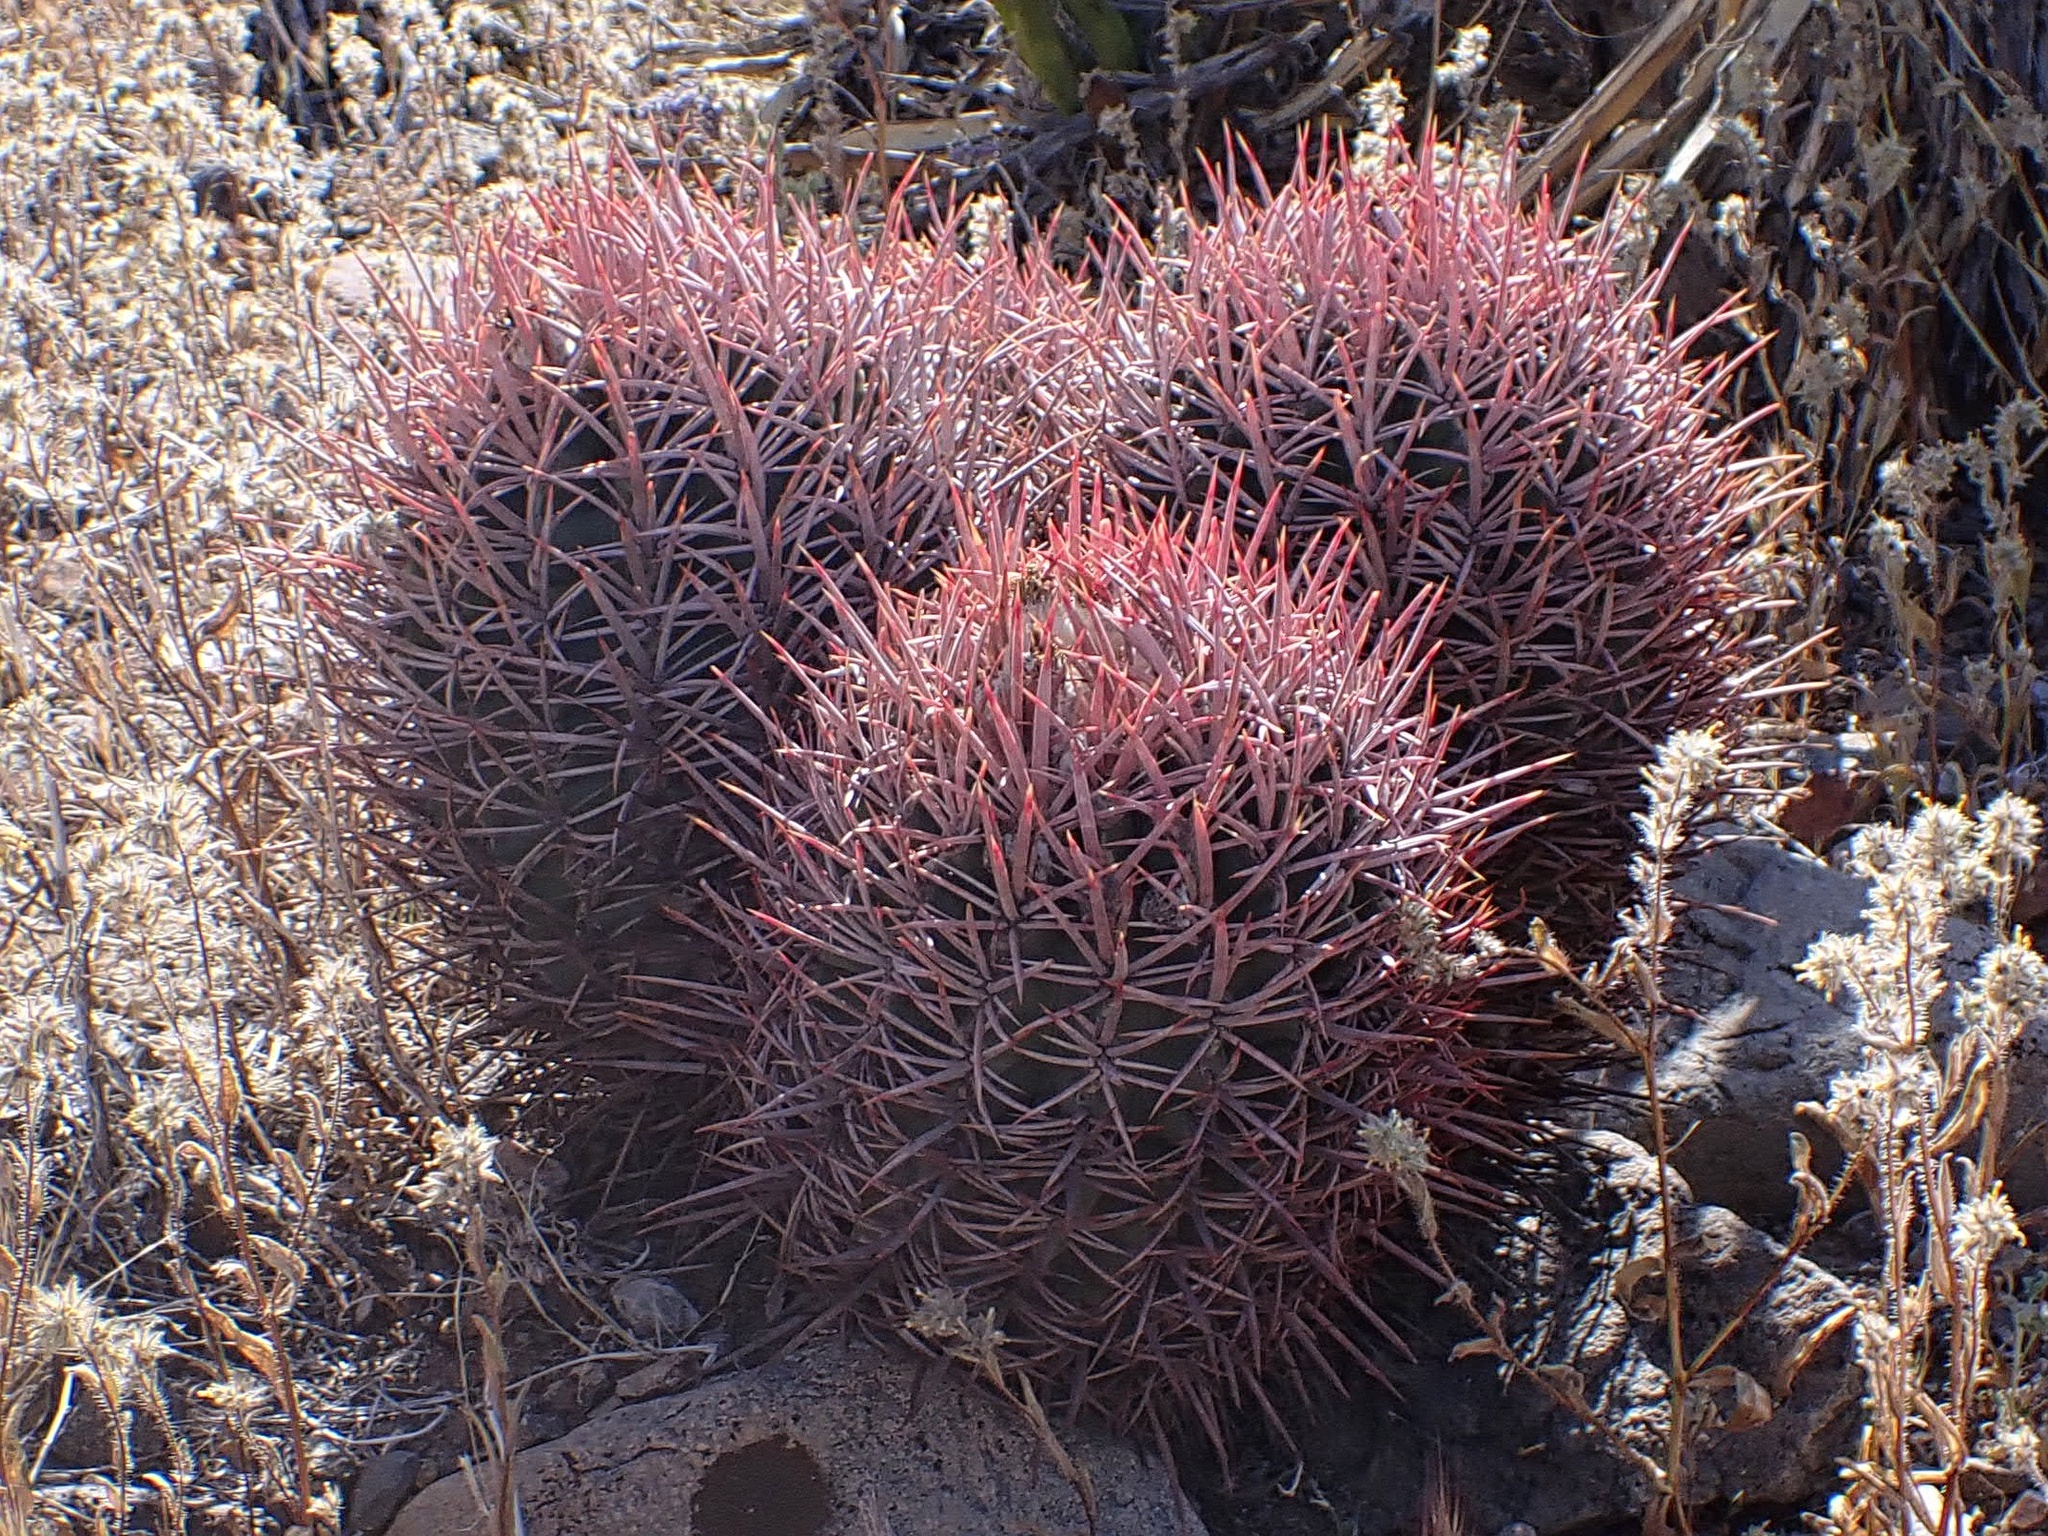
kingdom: Plantae
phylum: Tracheophyta
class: Magnoliopsida
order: Caryophyllales
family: Cactaceae
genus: Echinocactus
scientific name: Echinocactus polycephalus
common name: Cottontop cactus
